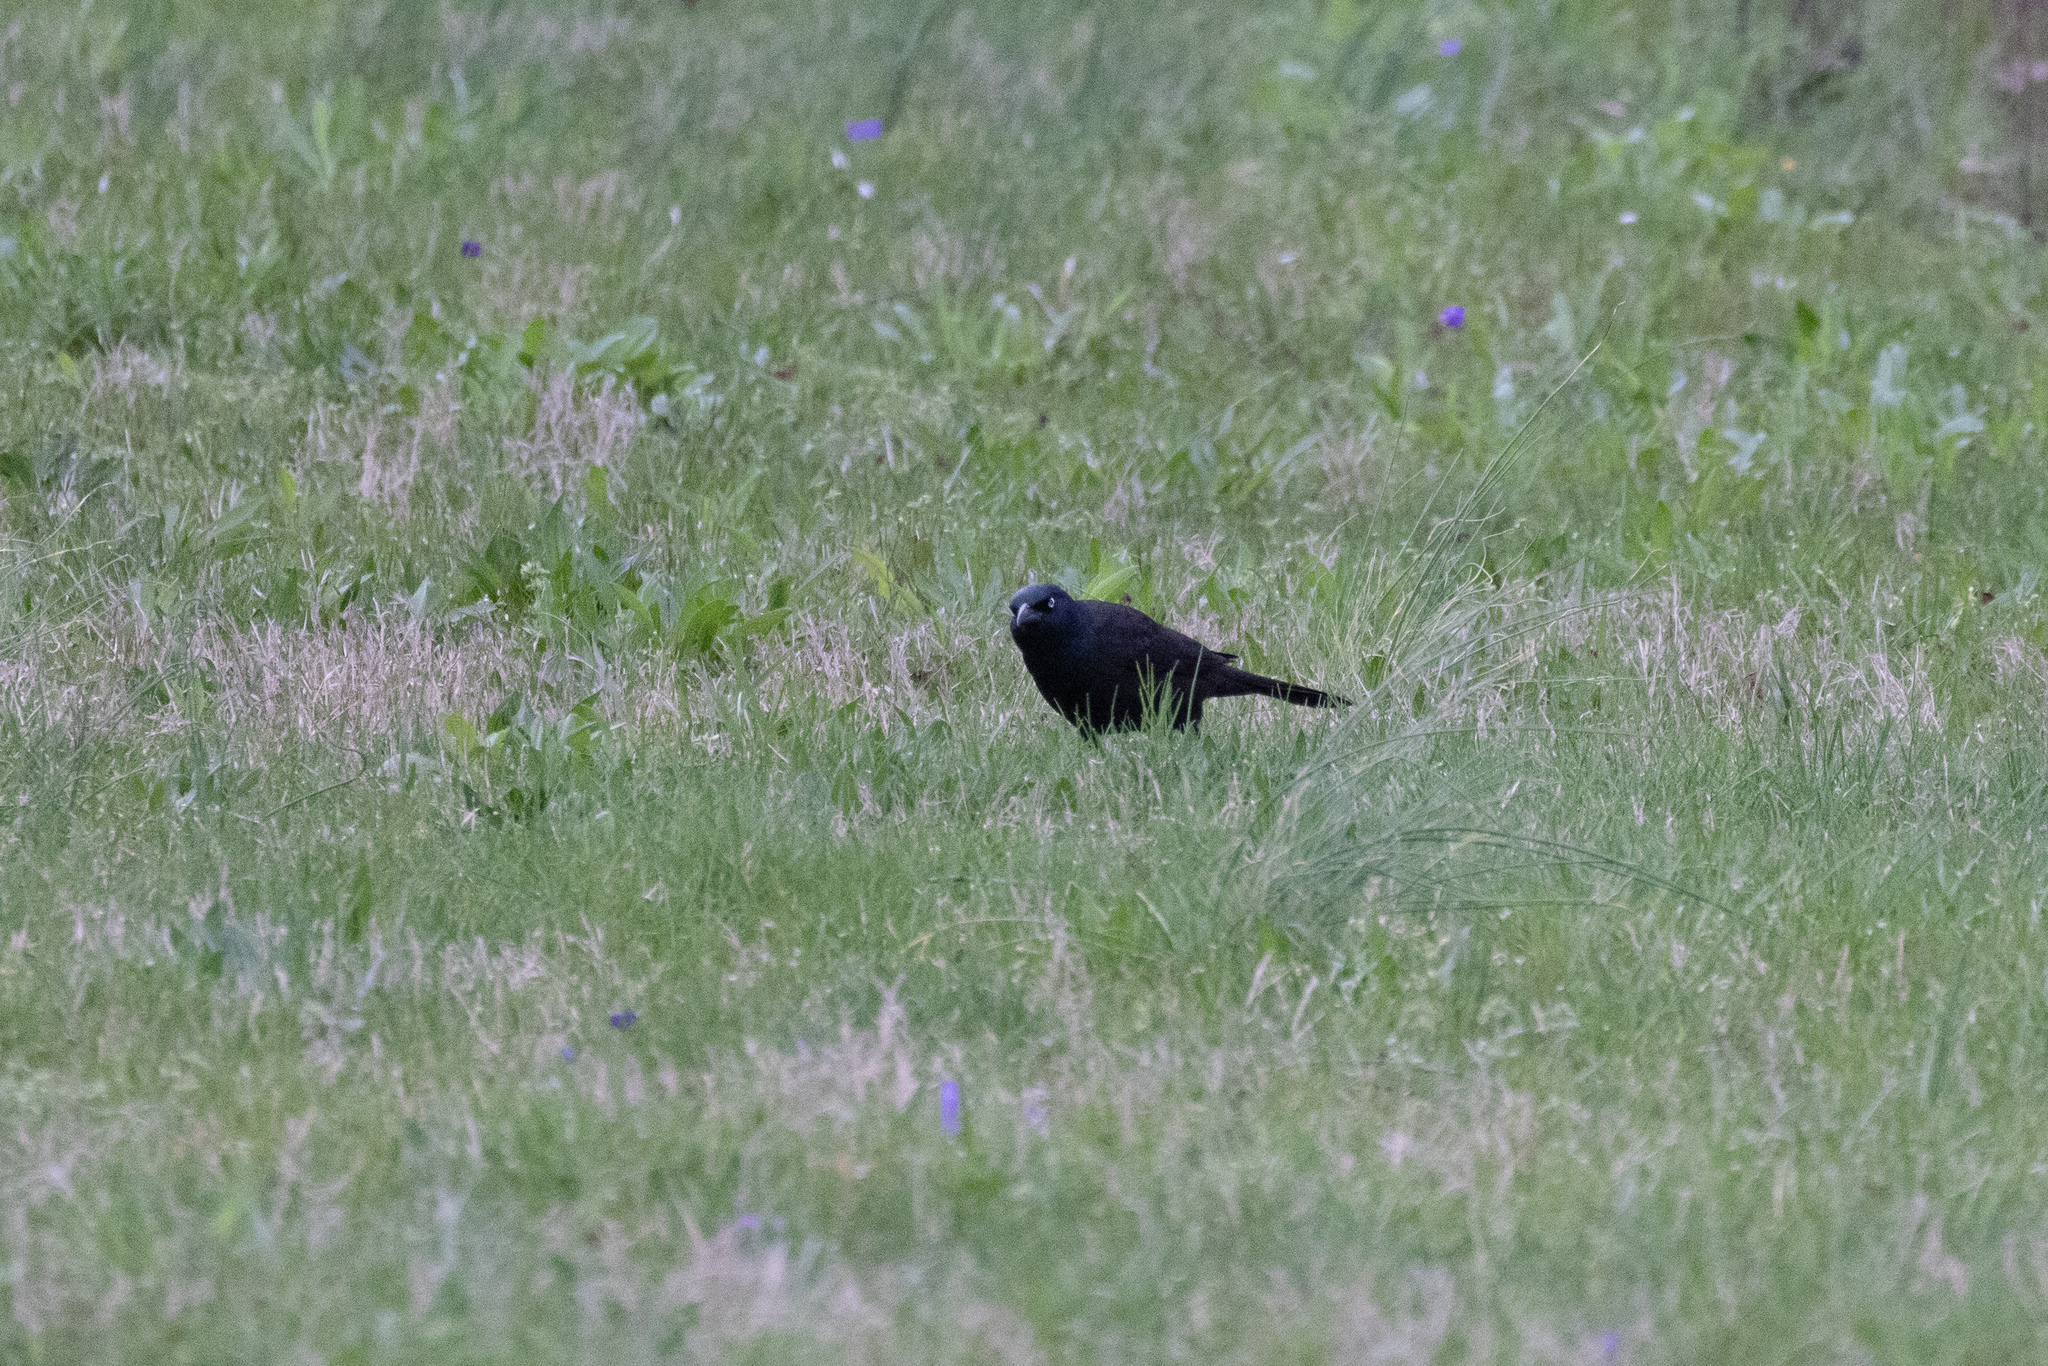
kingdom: Animalia
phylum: Chordata
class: Aves
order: Passeriformes
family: Icteridae
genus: Quiscalus
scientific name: Quiscalus quiscula
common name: Common grackle
